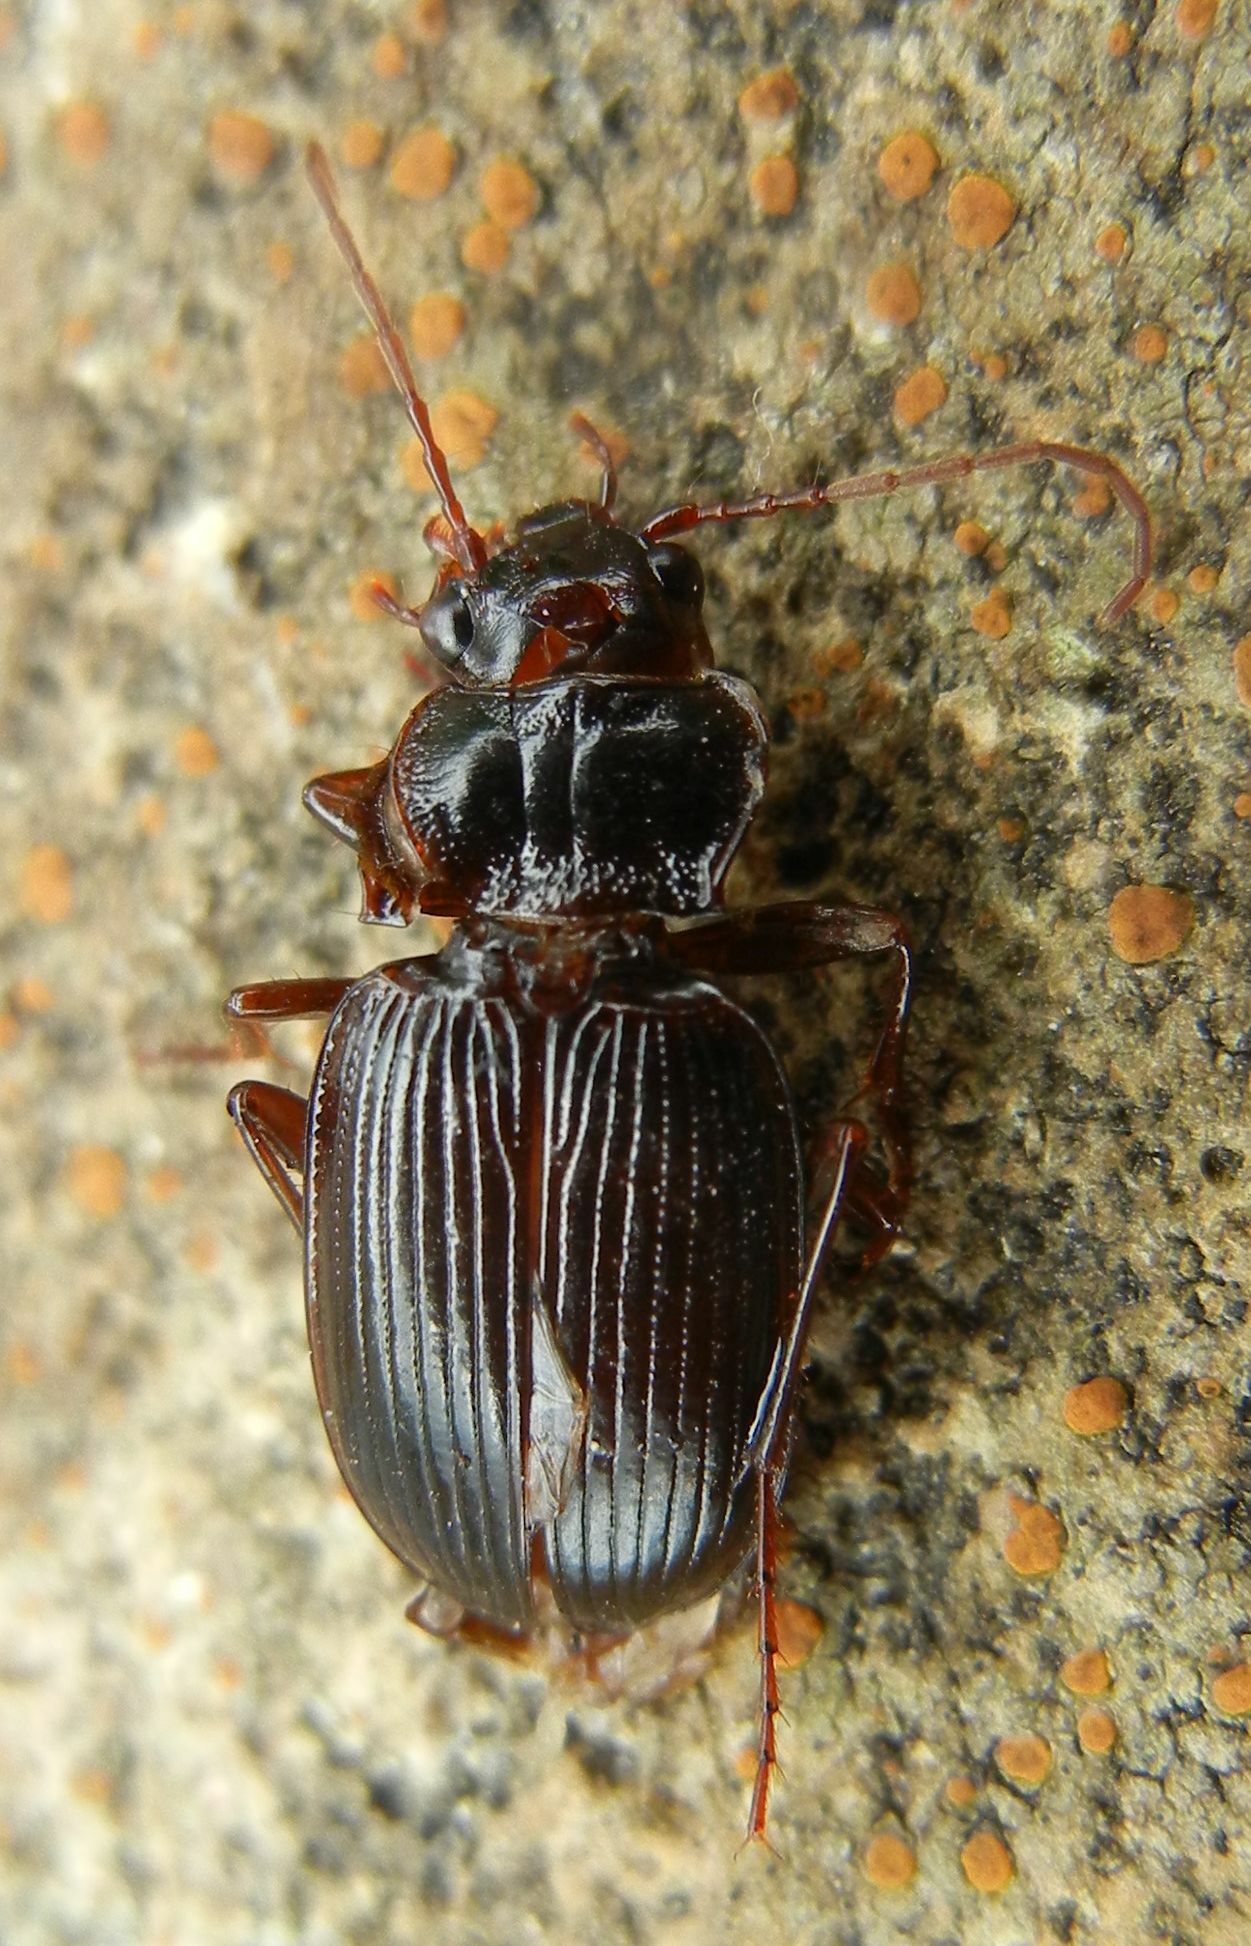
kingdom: Animalia
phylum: Arthropoda
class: Insecta
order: Coleoptera
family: Carabidae
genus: Nebria
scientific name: Nebria brevicollis
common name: Short-necked gazelle beetle
